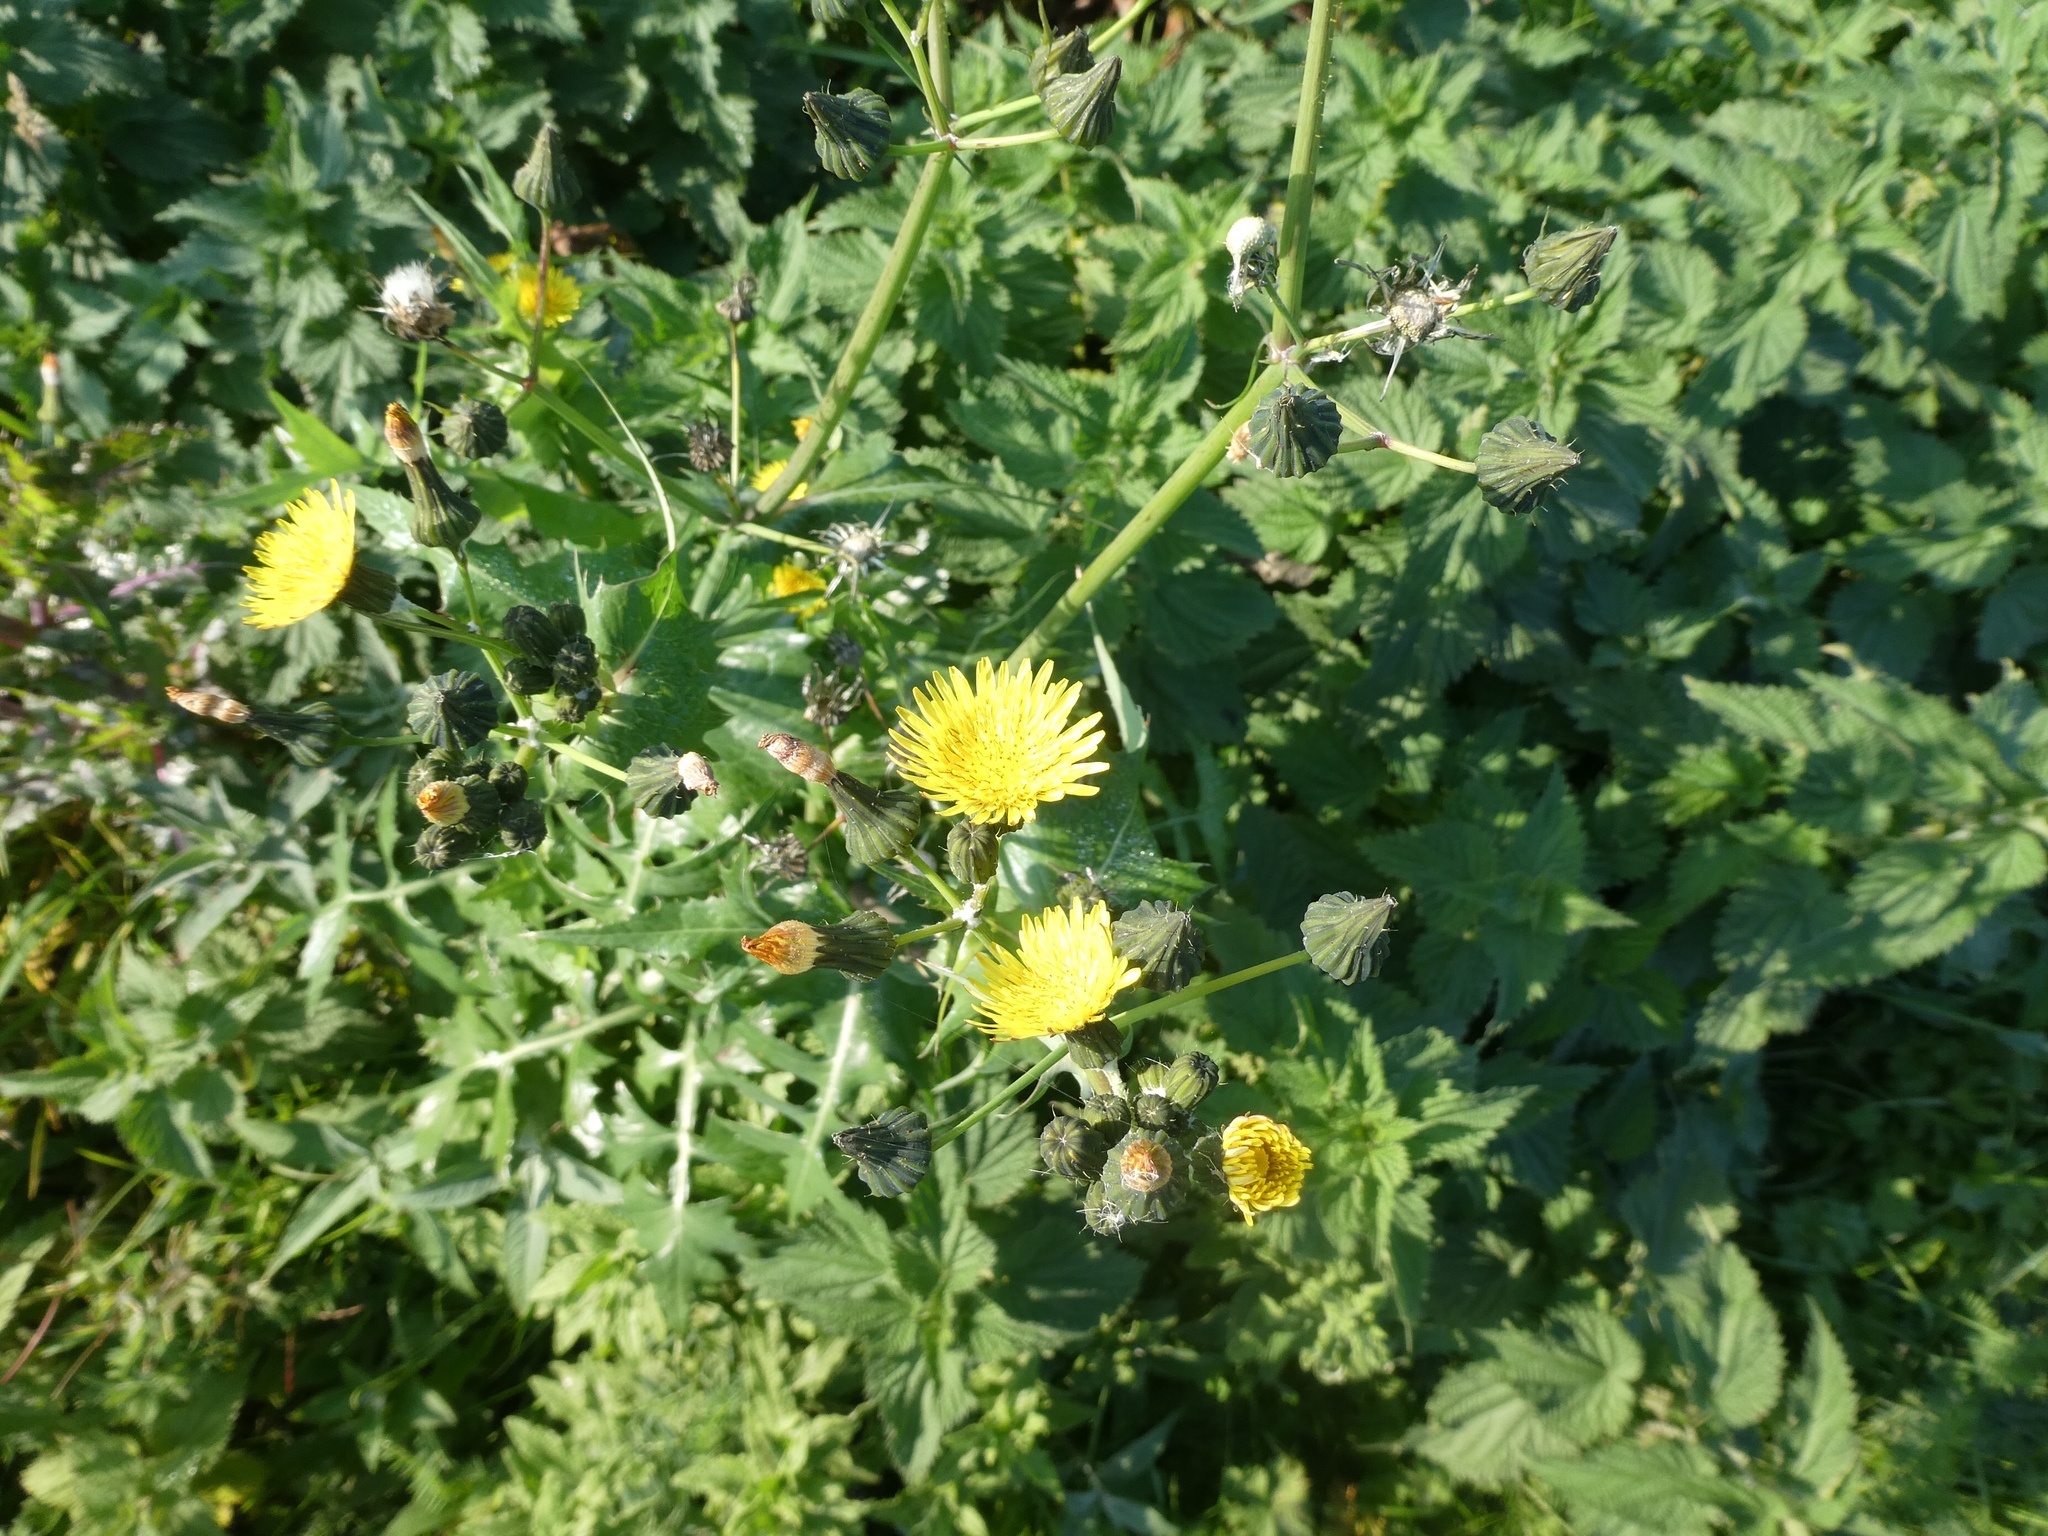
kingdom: Plantae
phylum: Tracheophyta
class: Magnoliopsida
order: Asterales
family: Asteraceae
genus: Sonchus
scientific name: Sonchus oleraceus
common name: Common sowthistle
